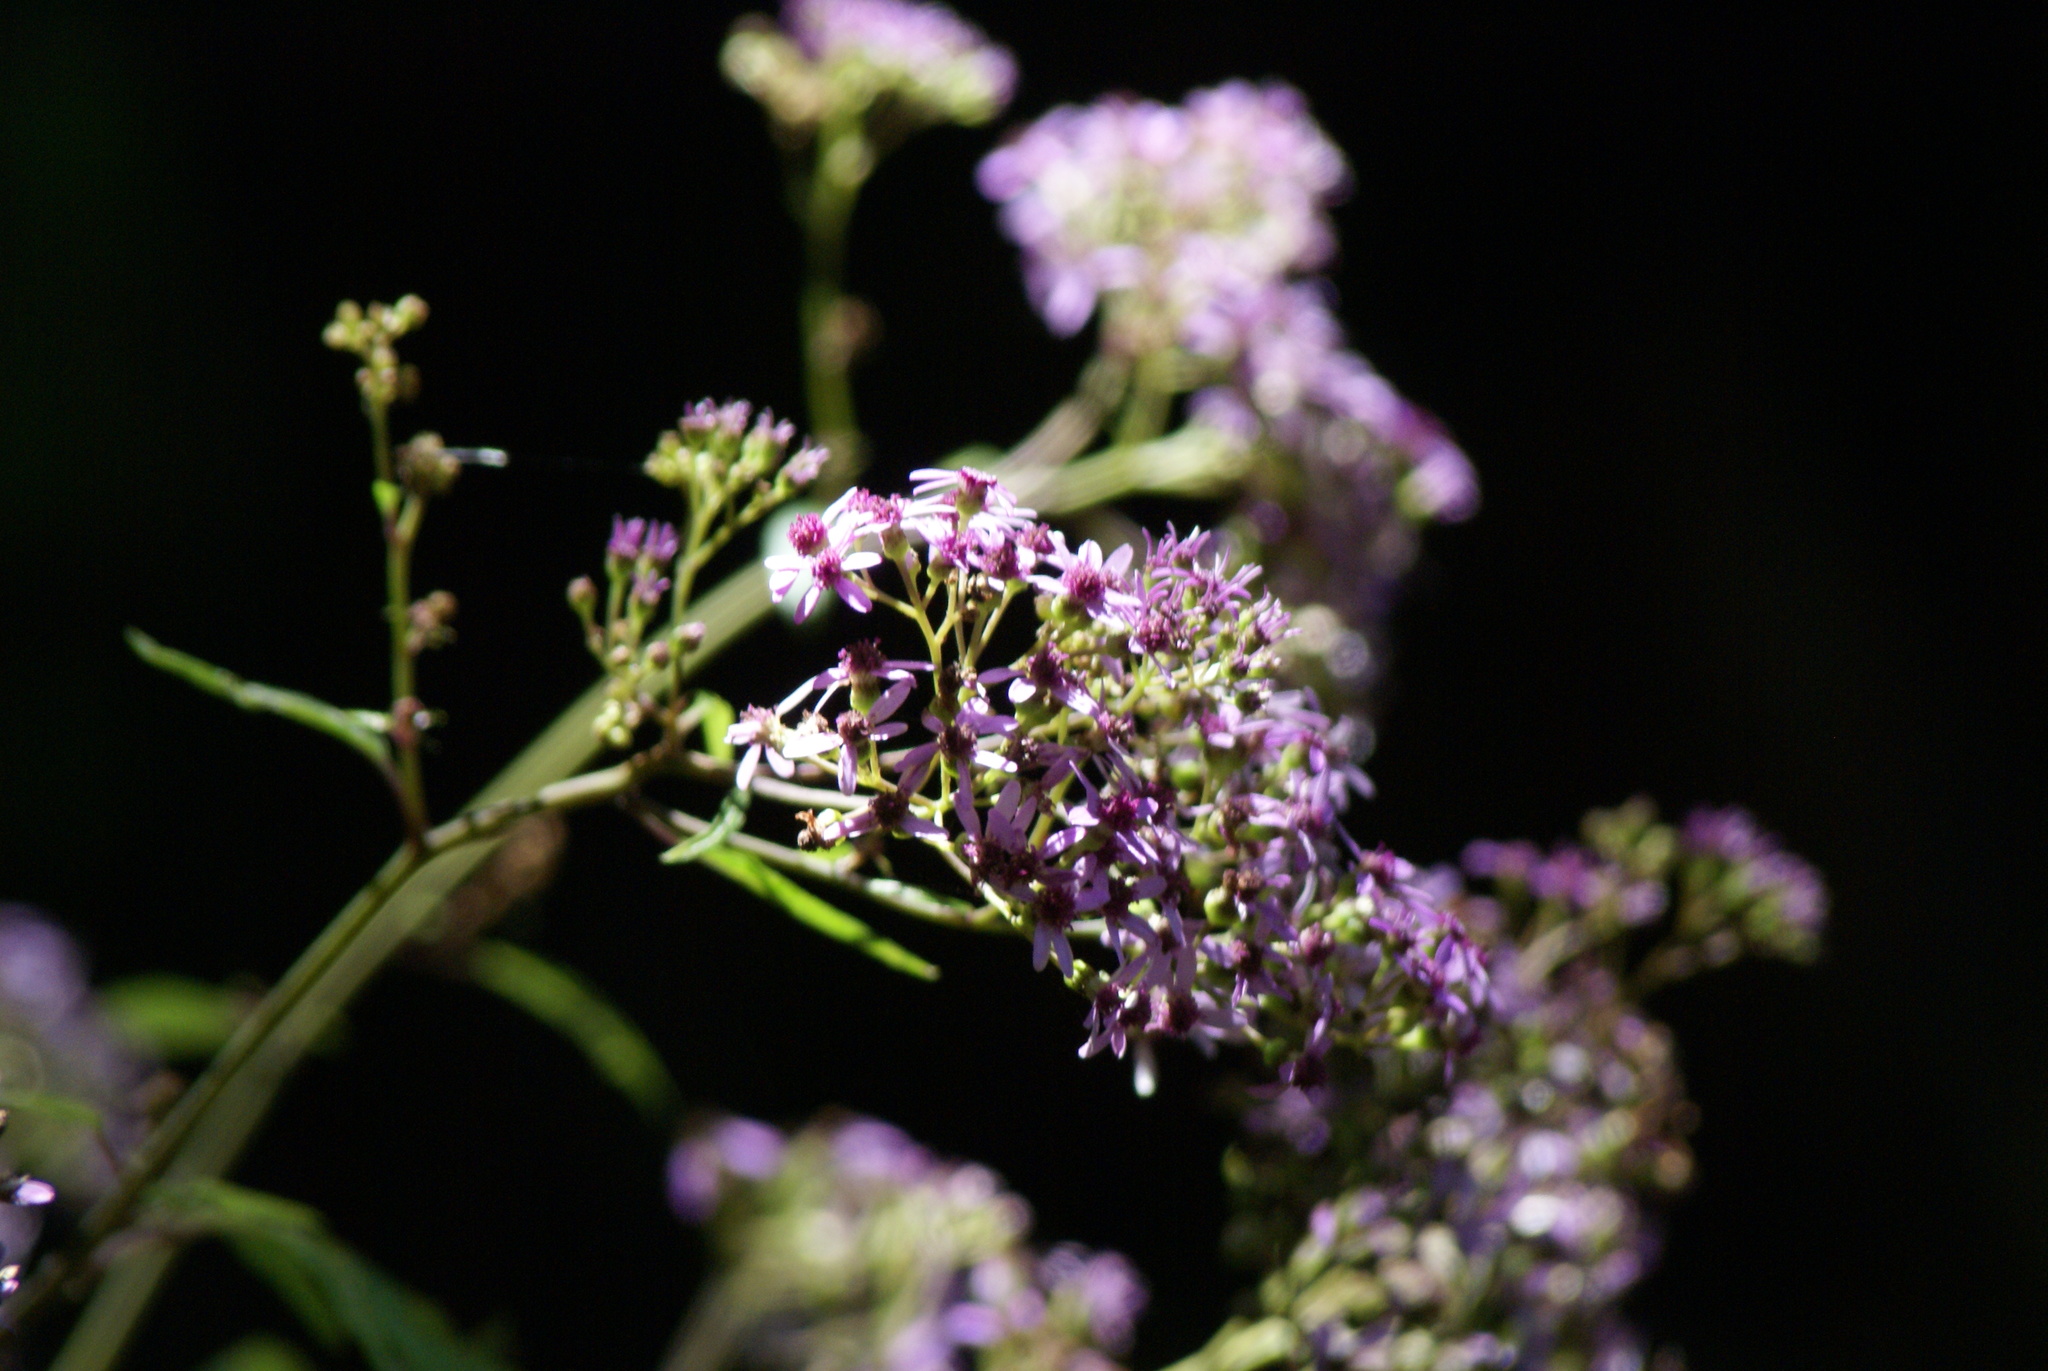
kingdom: Plantae
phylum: Tracheophyta
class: Magnoliopsida
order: Asterales
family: Asteraceae
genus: Pericallis
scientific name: Pericallis papyracea
